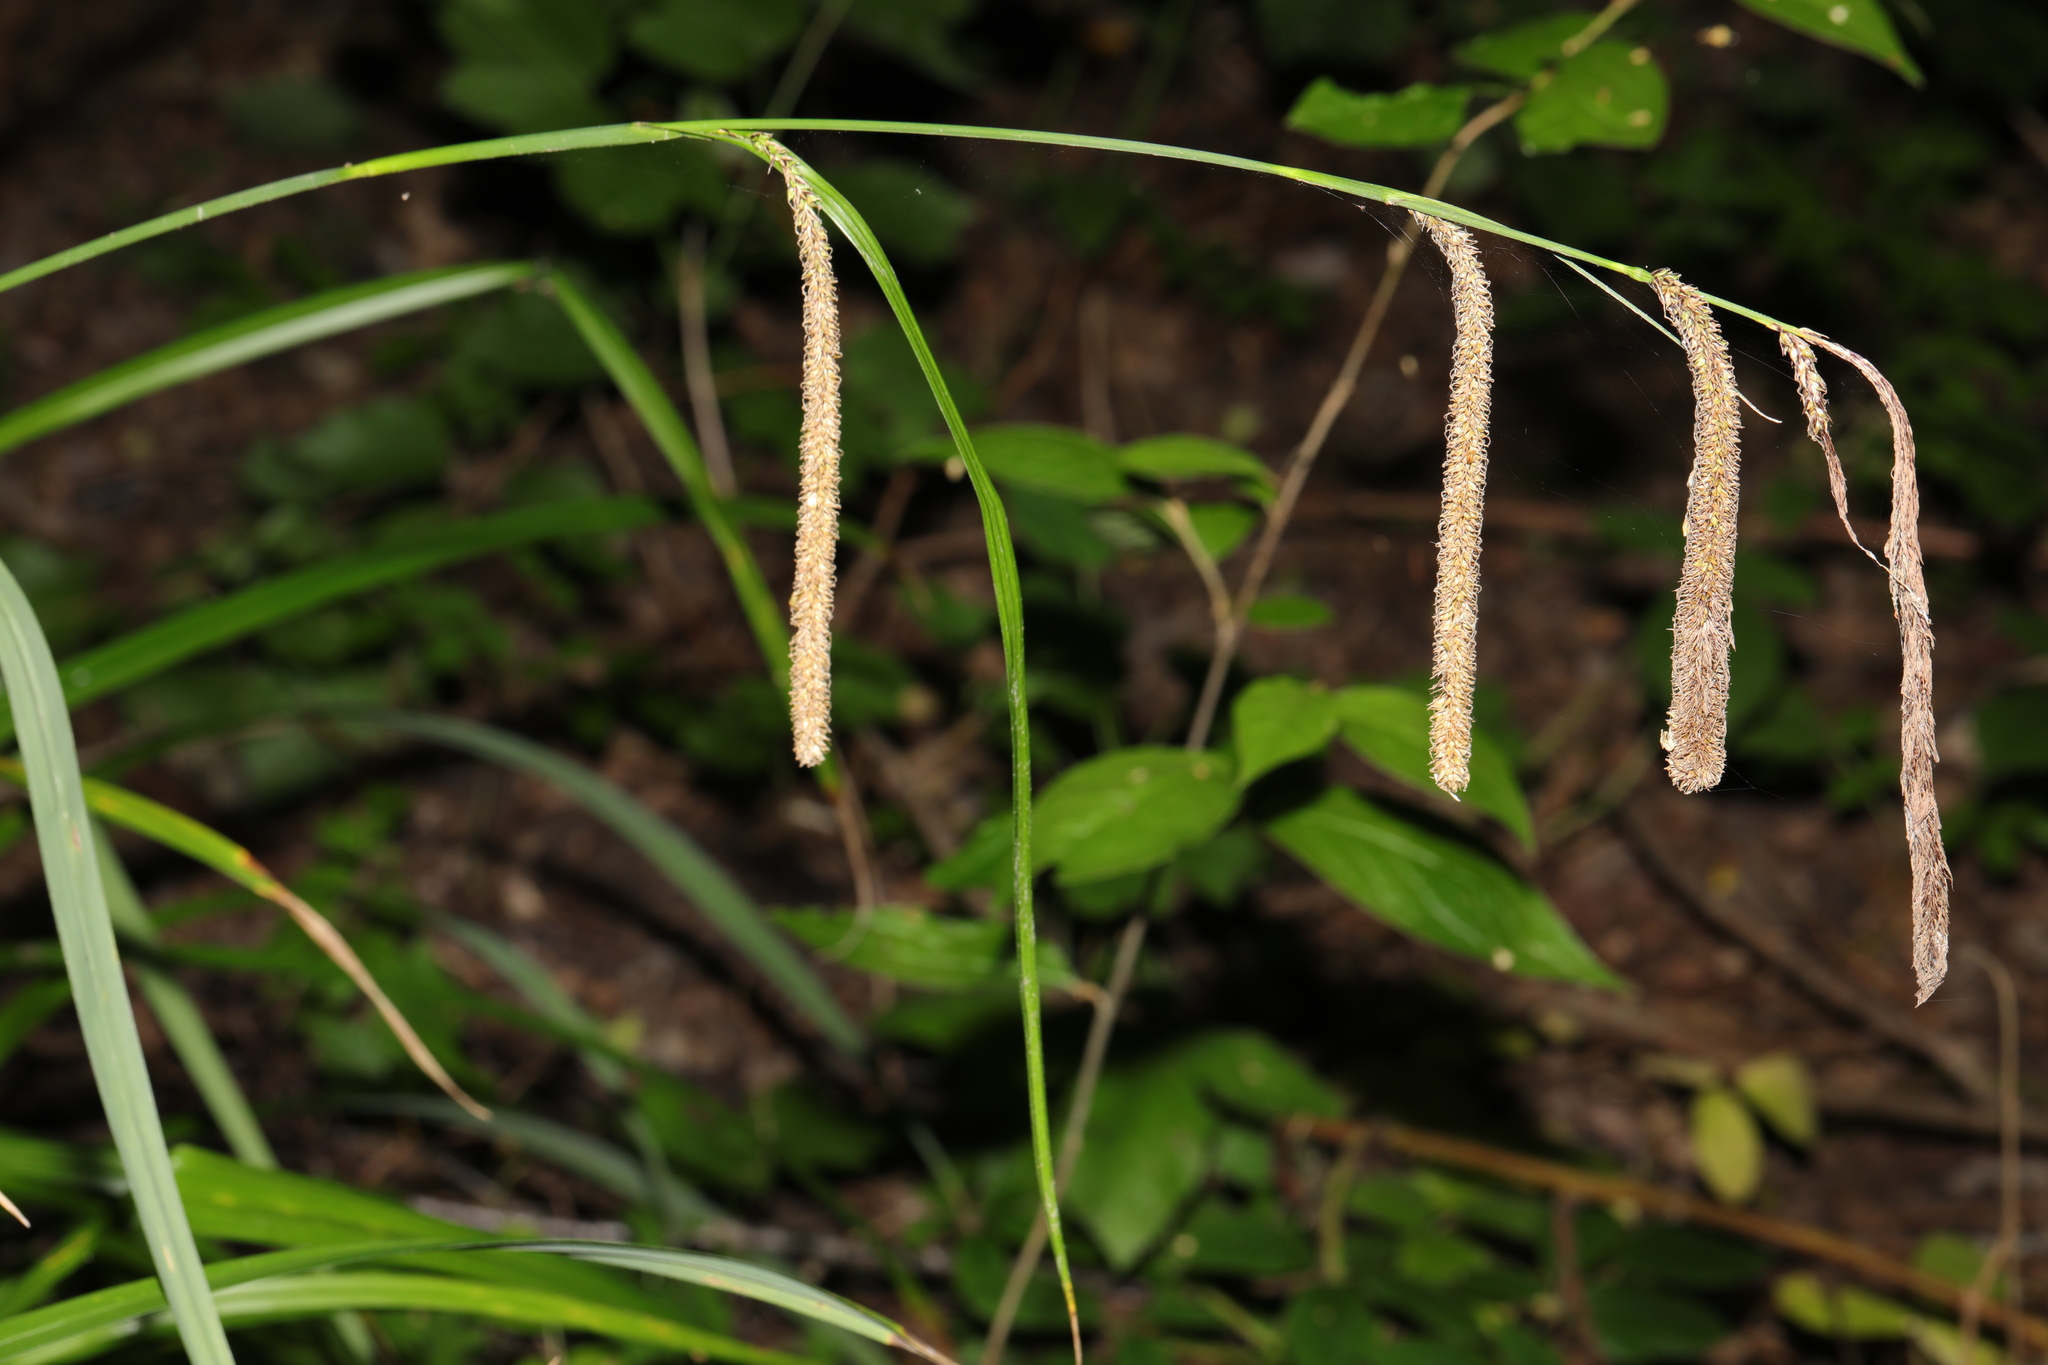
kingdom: Plantae
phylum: Tracheophyta
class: Liliopsida
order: Poales
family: Cyperaceae
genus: Carex
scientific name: Carex pendula
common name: Pendulous sedge
